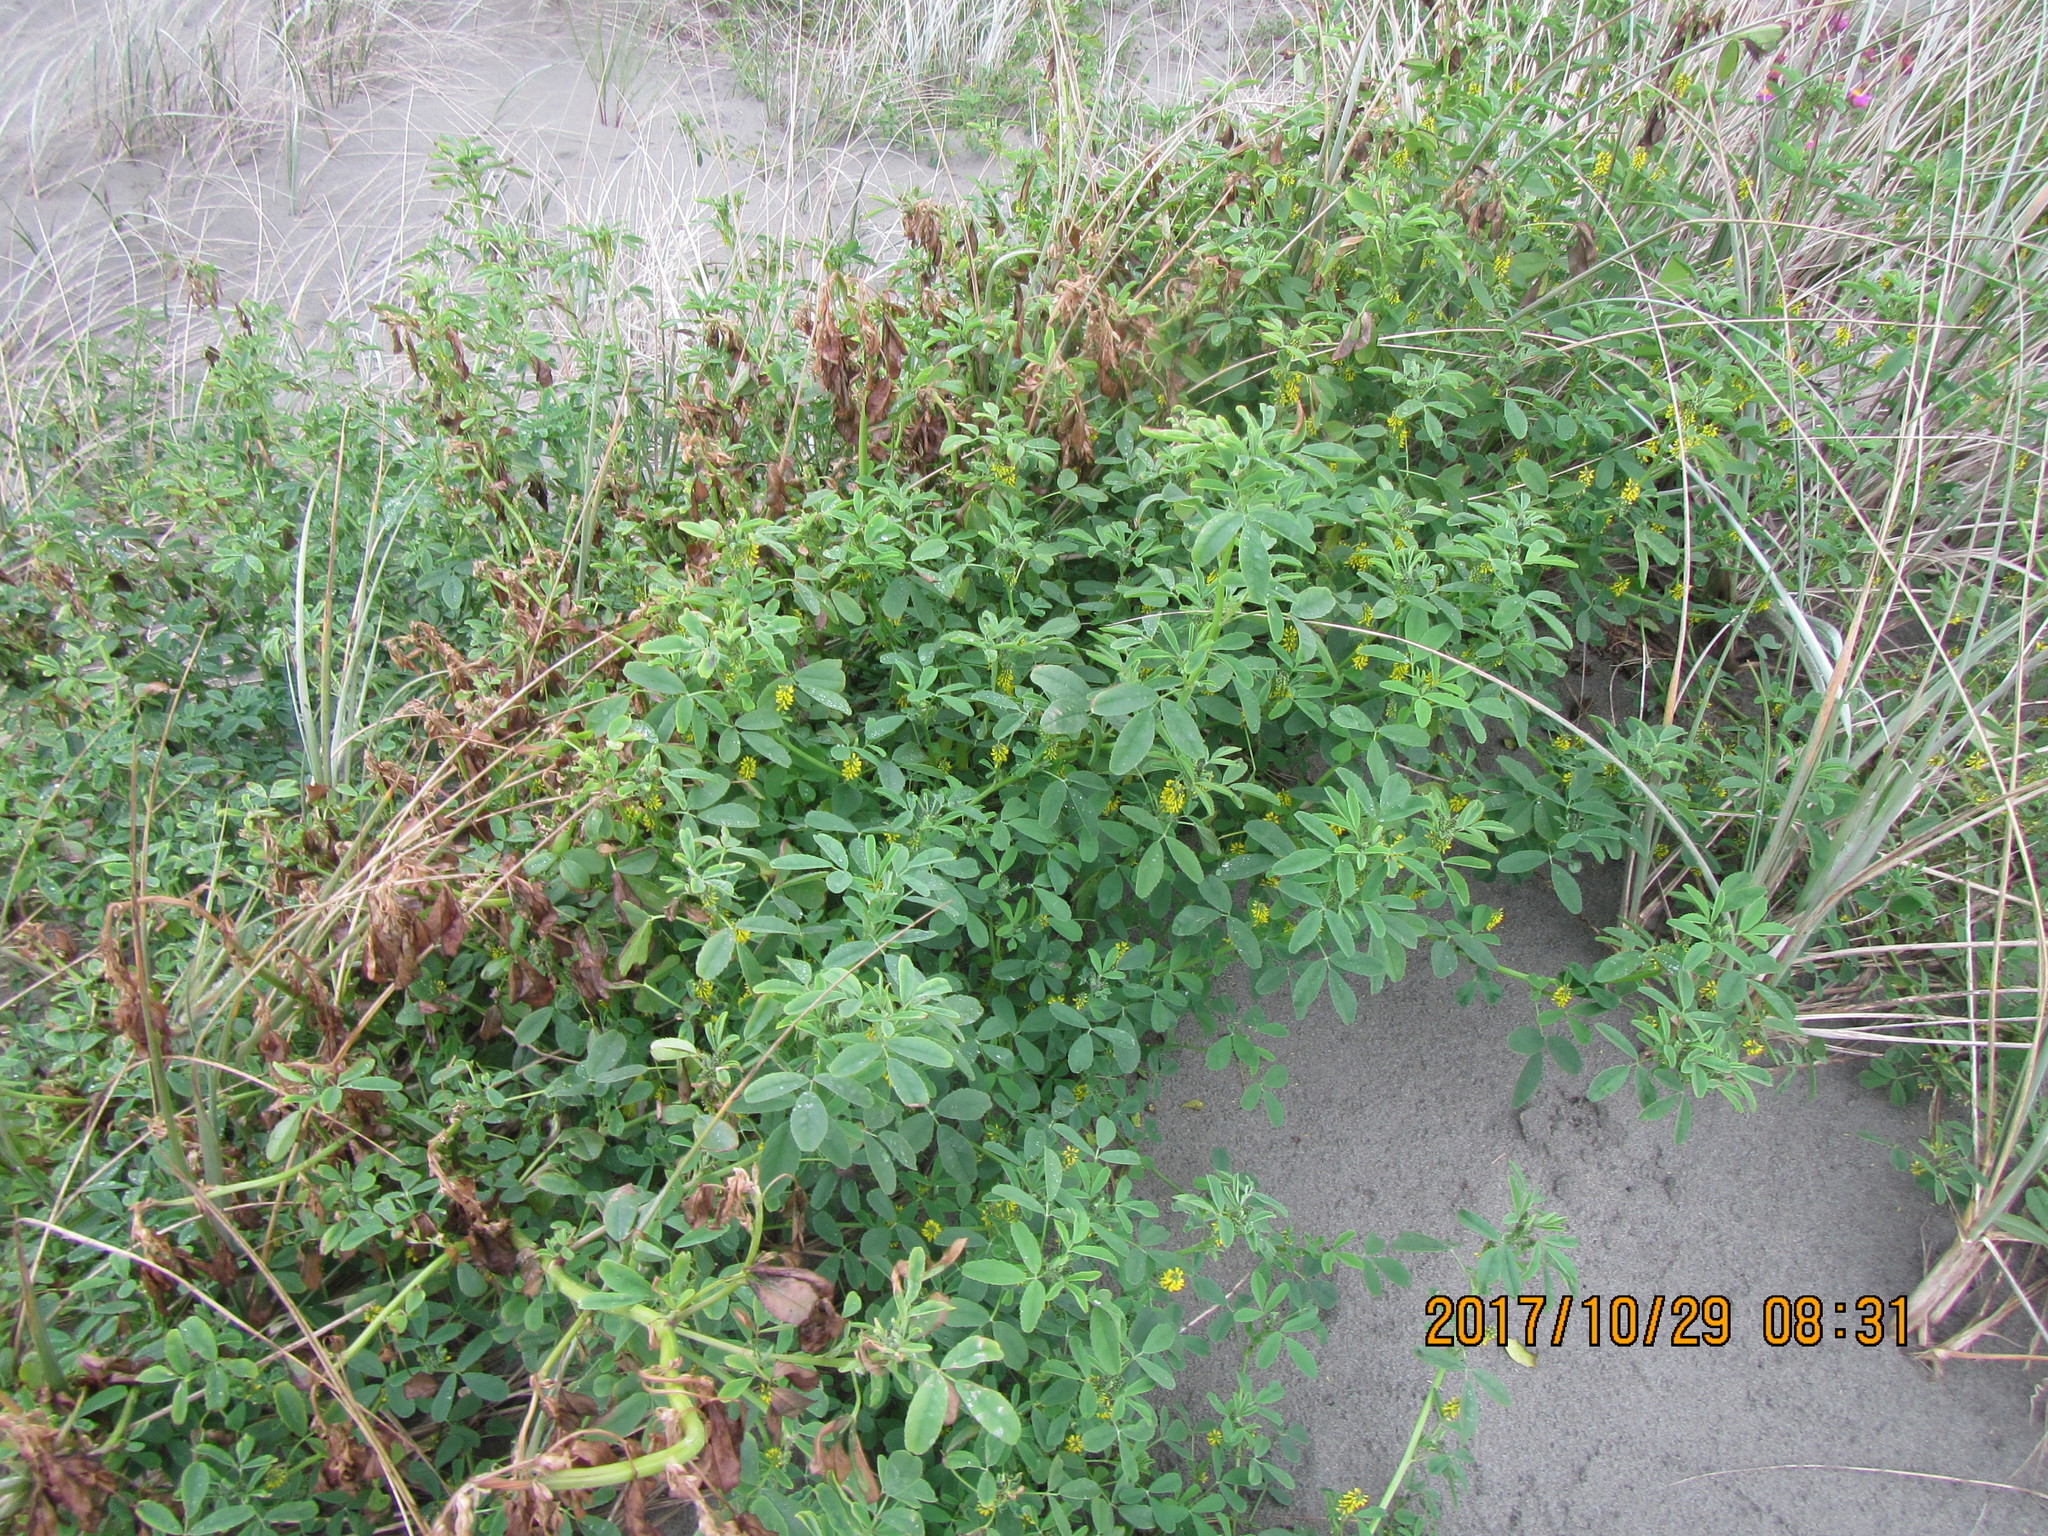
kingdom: Plantae
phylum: Tracheophyta
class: Magnoliopsida
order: Fabales
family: Fabaceae
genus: Melilotus
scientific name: Melilotus indicus
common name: Small melilot
